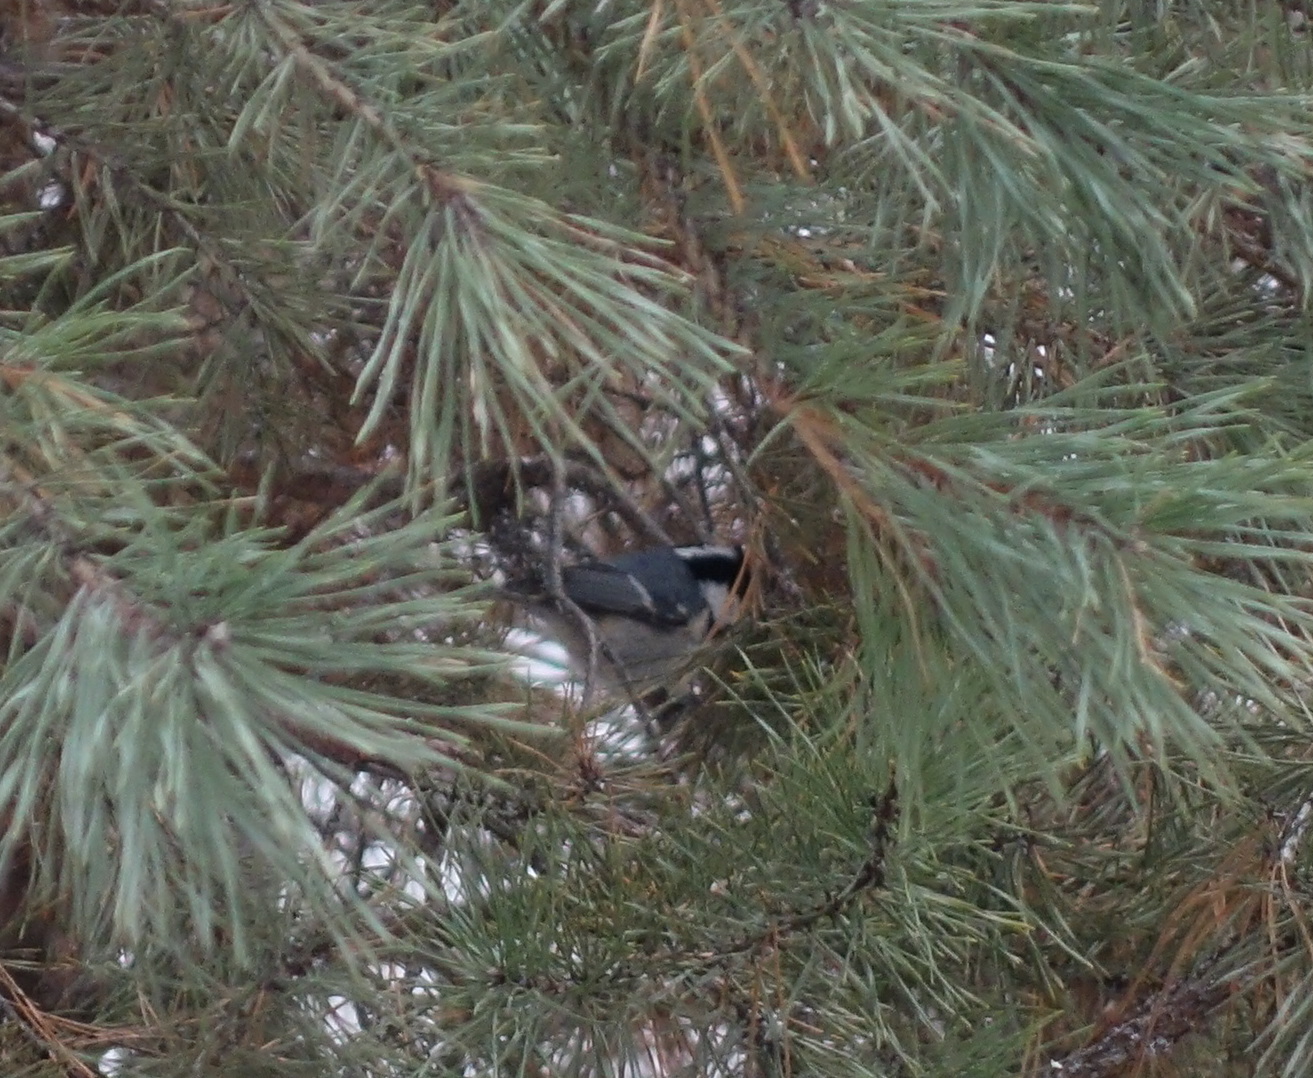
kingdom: Animalia
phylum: Chordata
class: Aves
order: Passeriformes
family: Paridae
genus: Periparus
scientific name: Periparus ater
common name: Coal tit
